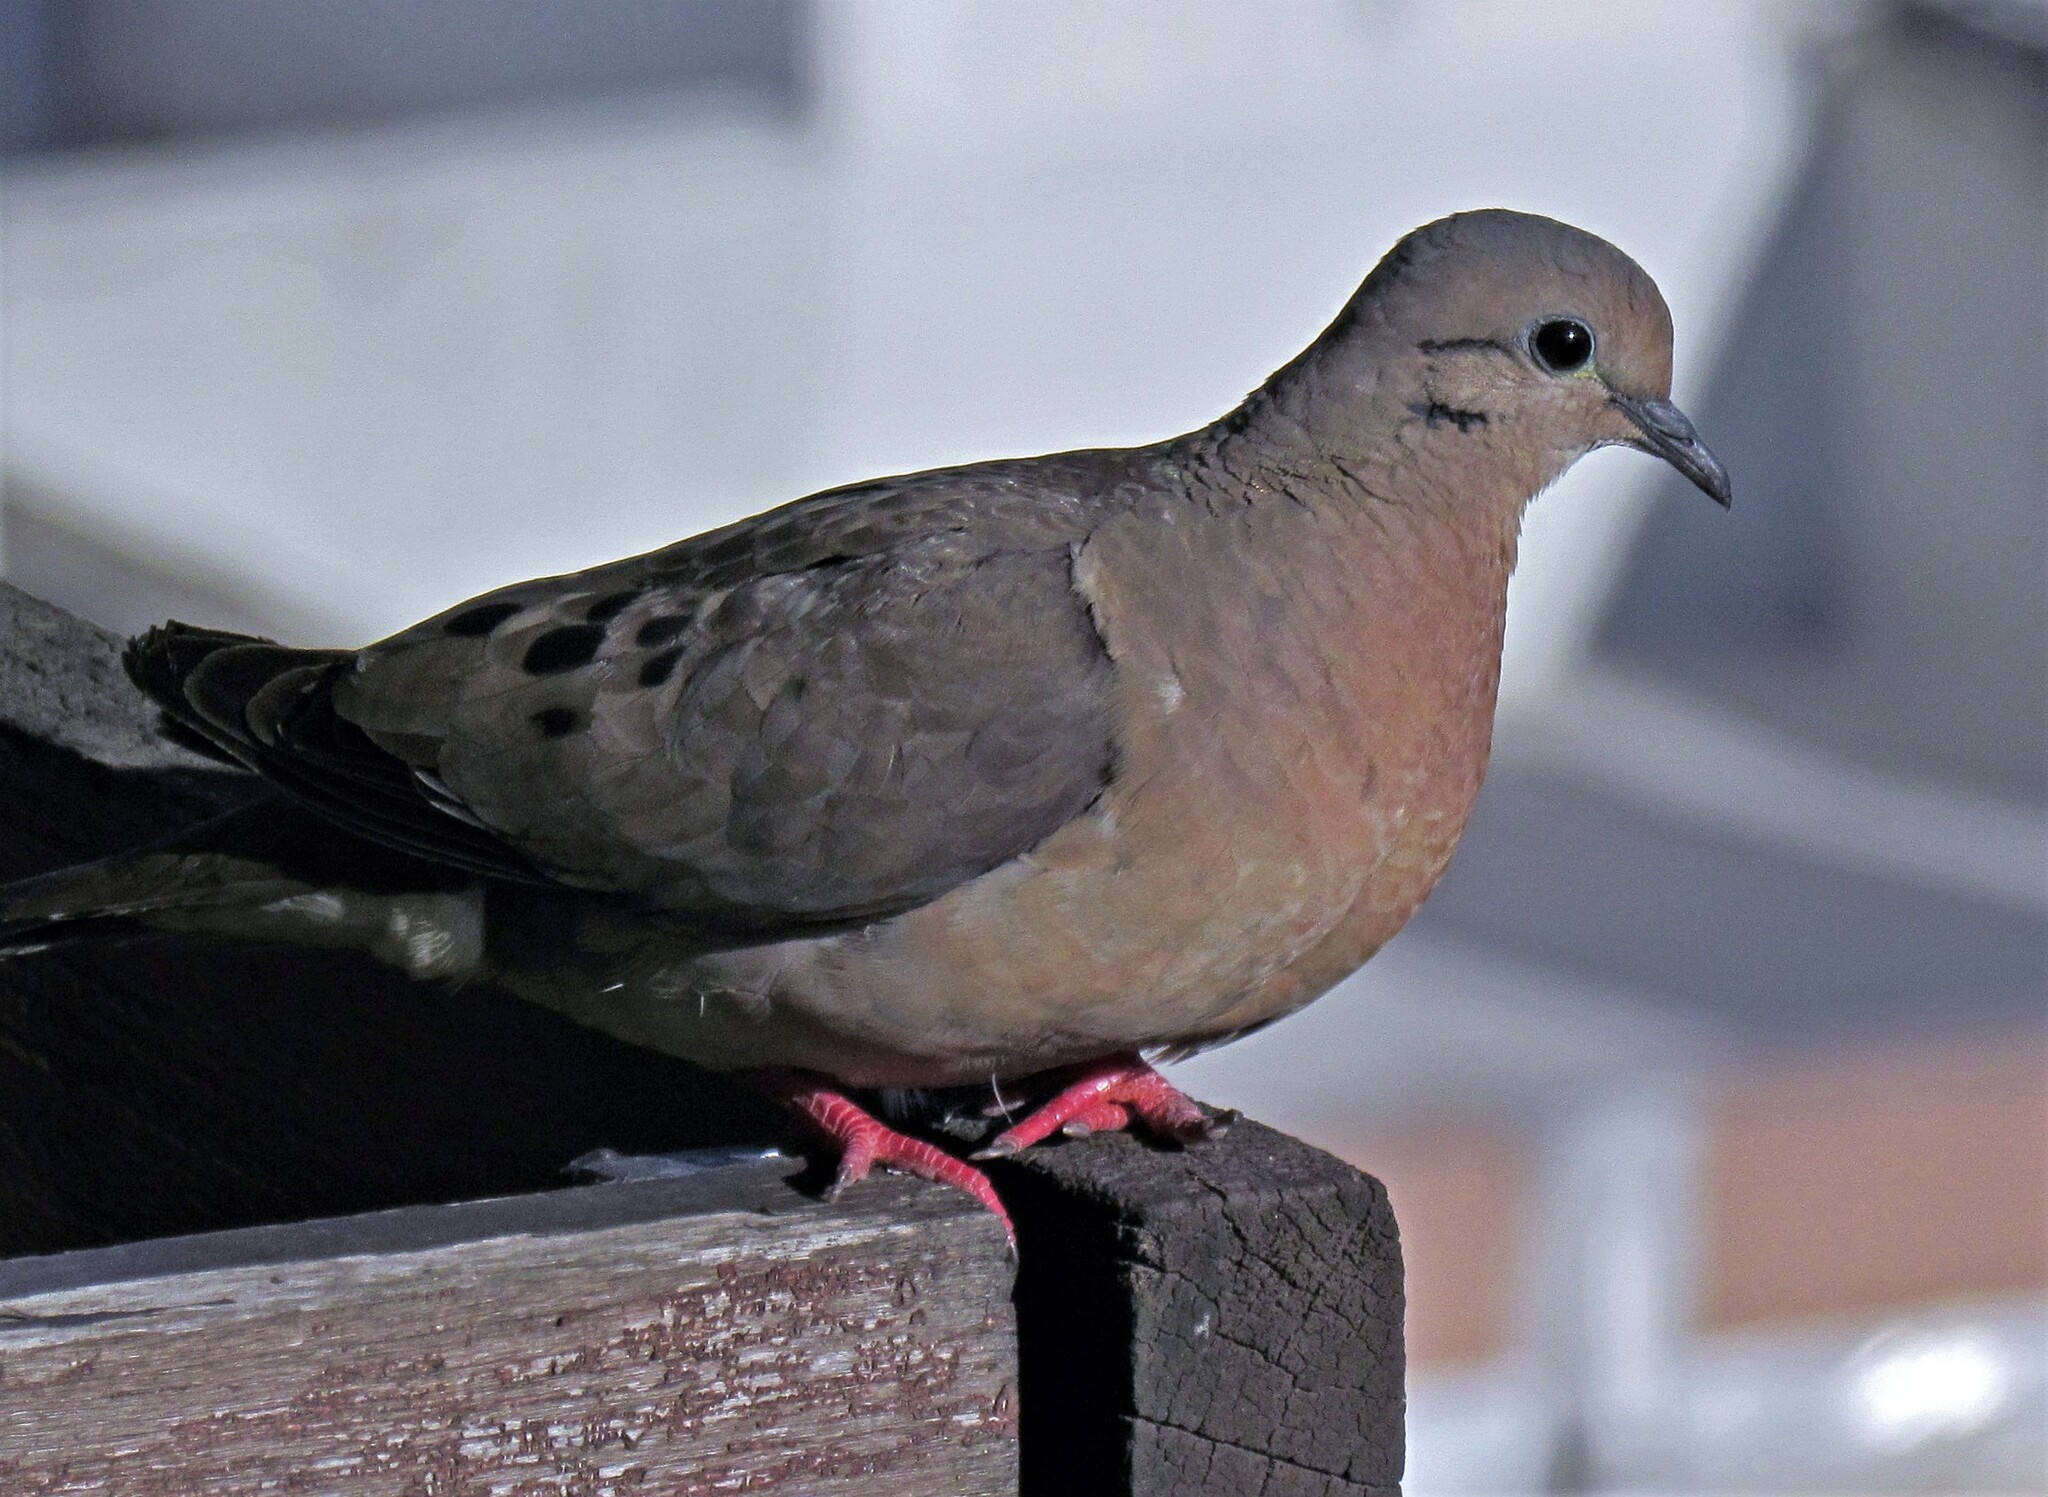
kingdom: Animalia
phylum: Chordata
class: Aves
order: Columbiformes
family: Columbidae
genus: Zenaida
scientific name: Zenaida auriculata
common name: Eared dove
